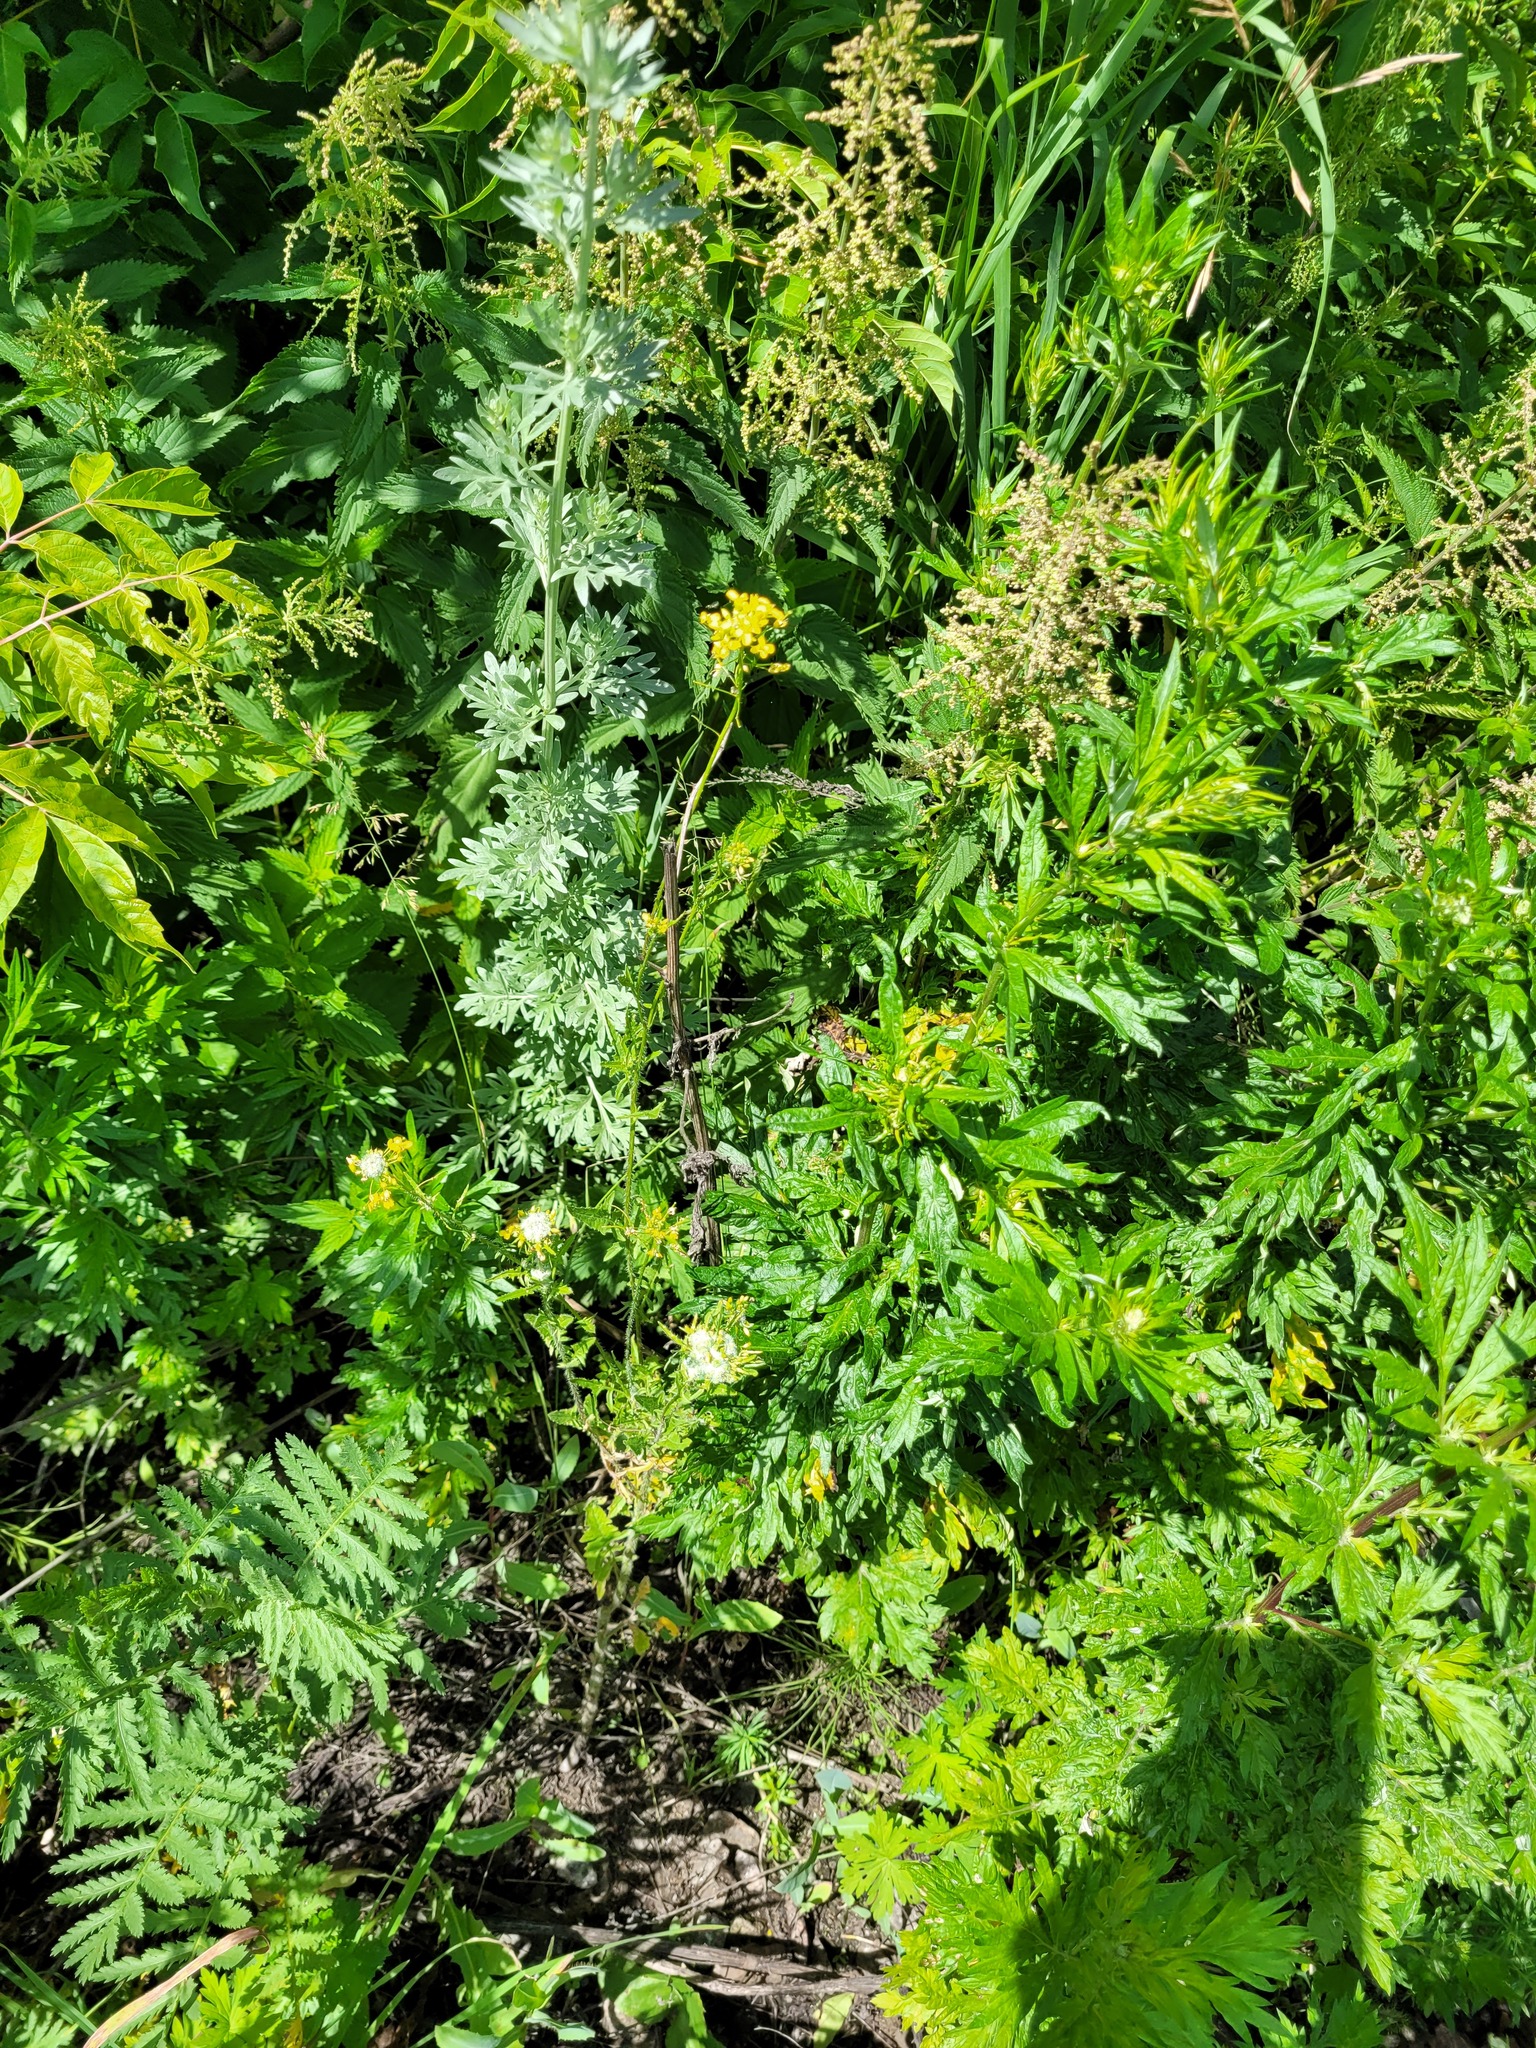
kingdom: Plantae
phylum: Tracheophyta
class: Magnoliopsida
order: Brassicales
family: Brassicaceae
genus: Sisymbrium
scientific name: Sisymbrium loeselii
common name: False london-rocket
